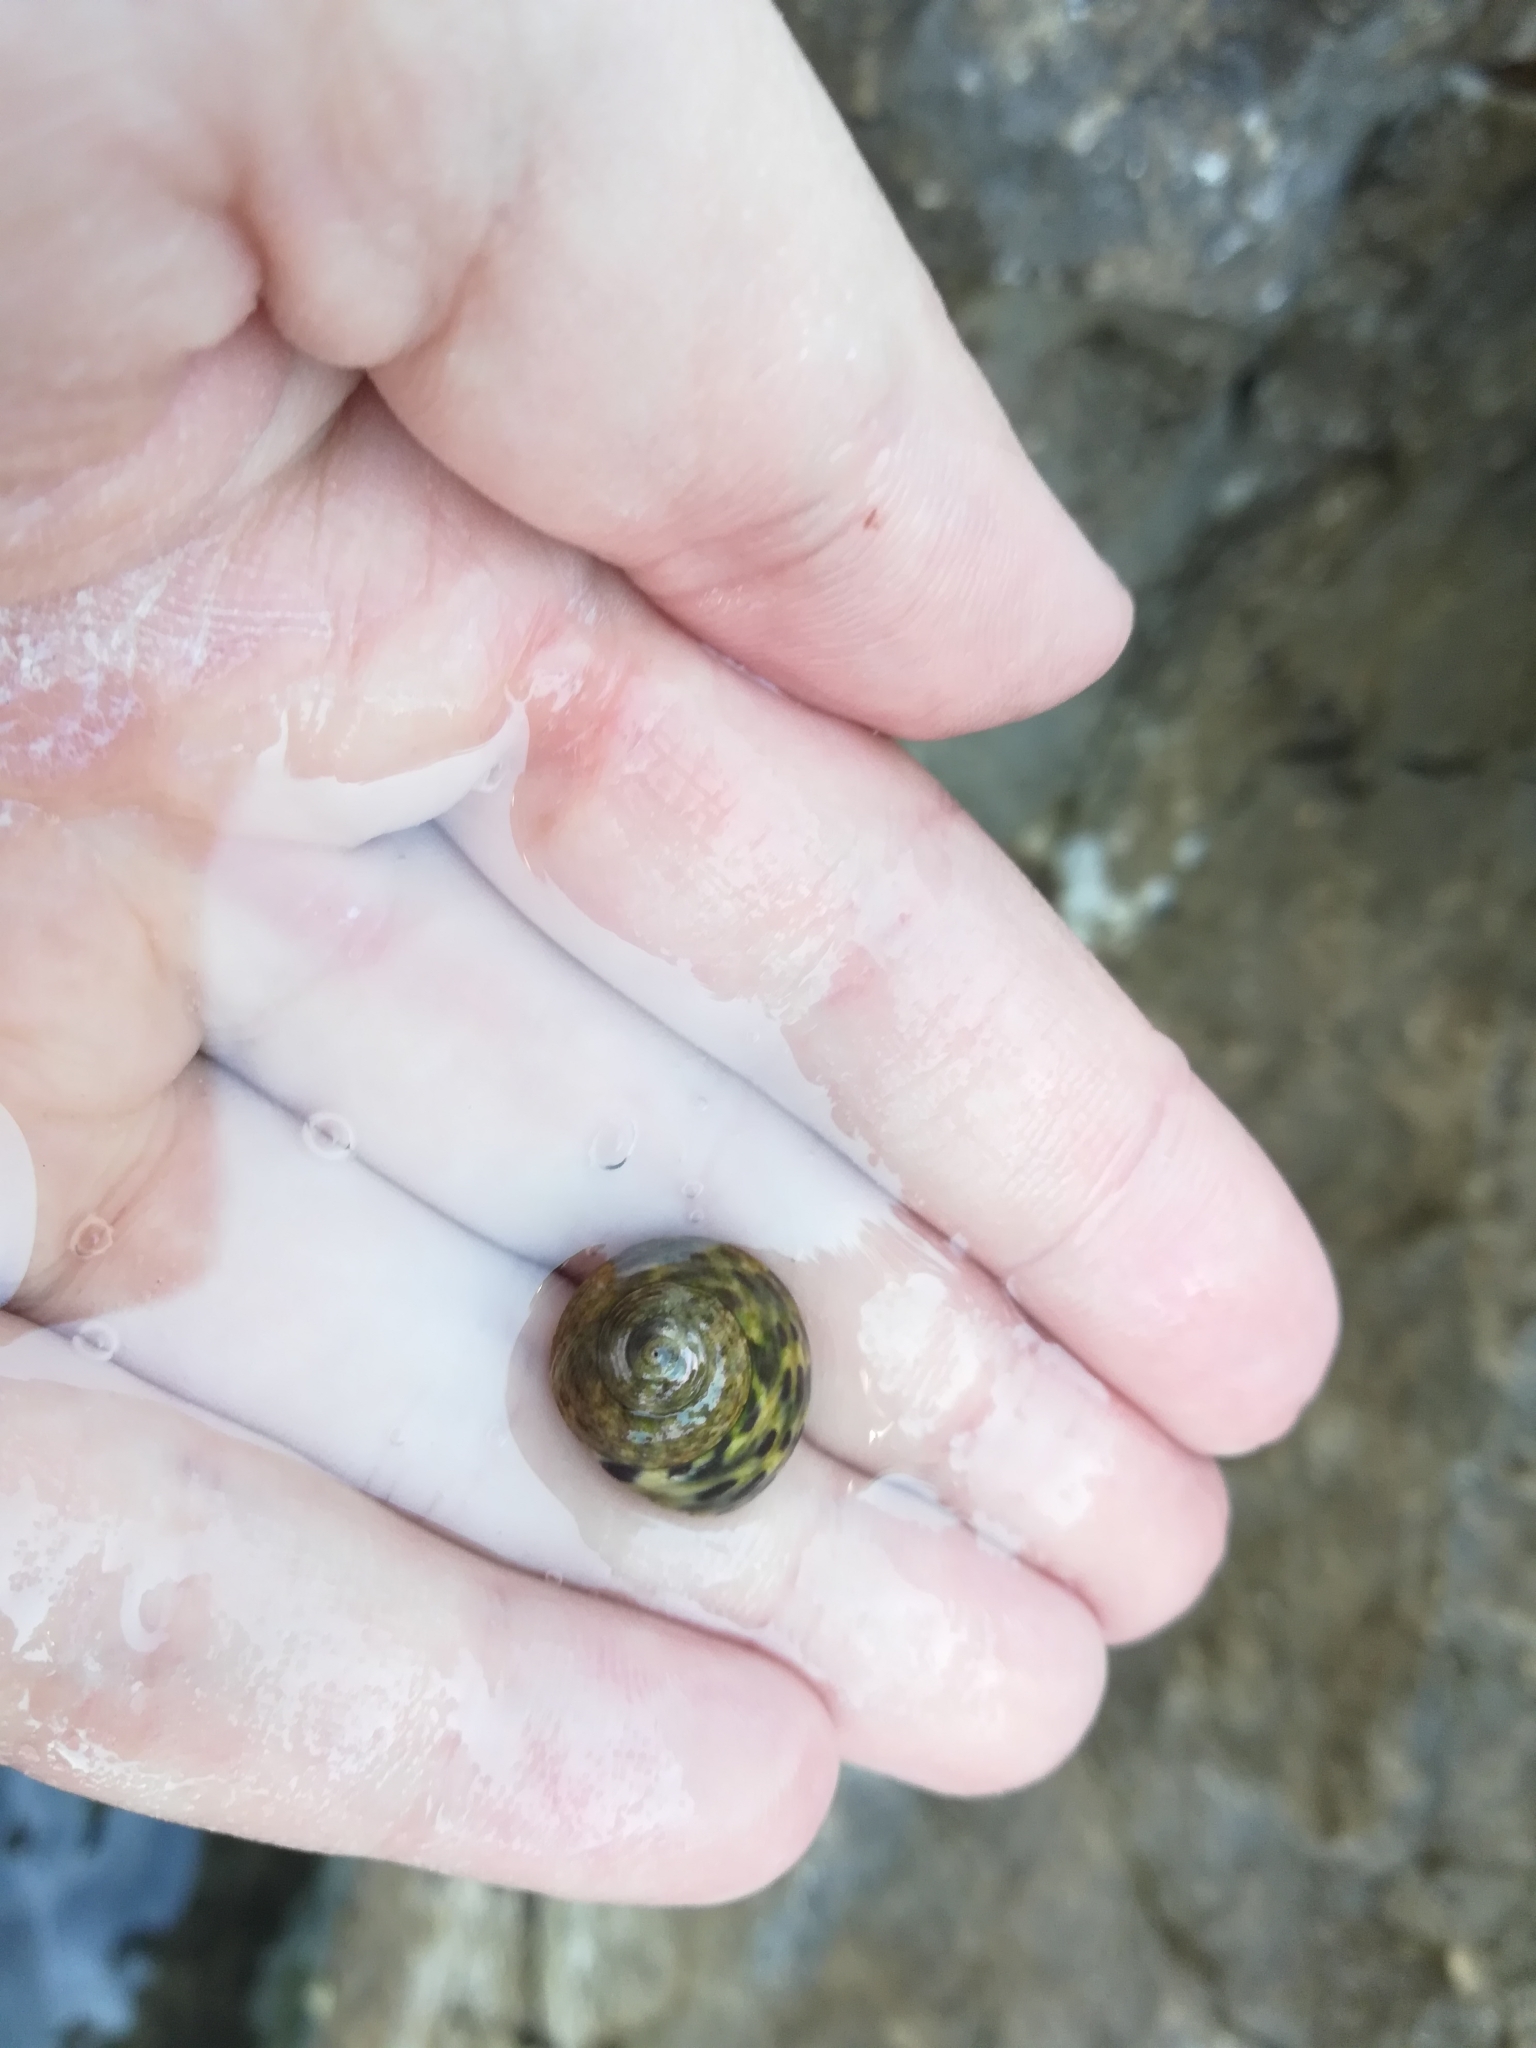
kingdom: Animalia
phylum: Mollusca
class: Gastropoda
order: Trochida
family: Trochidae
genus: Phorcus
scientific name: Phorcus turbinatus
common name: Turbinate monodont
